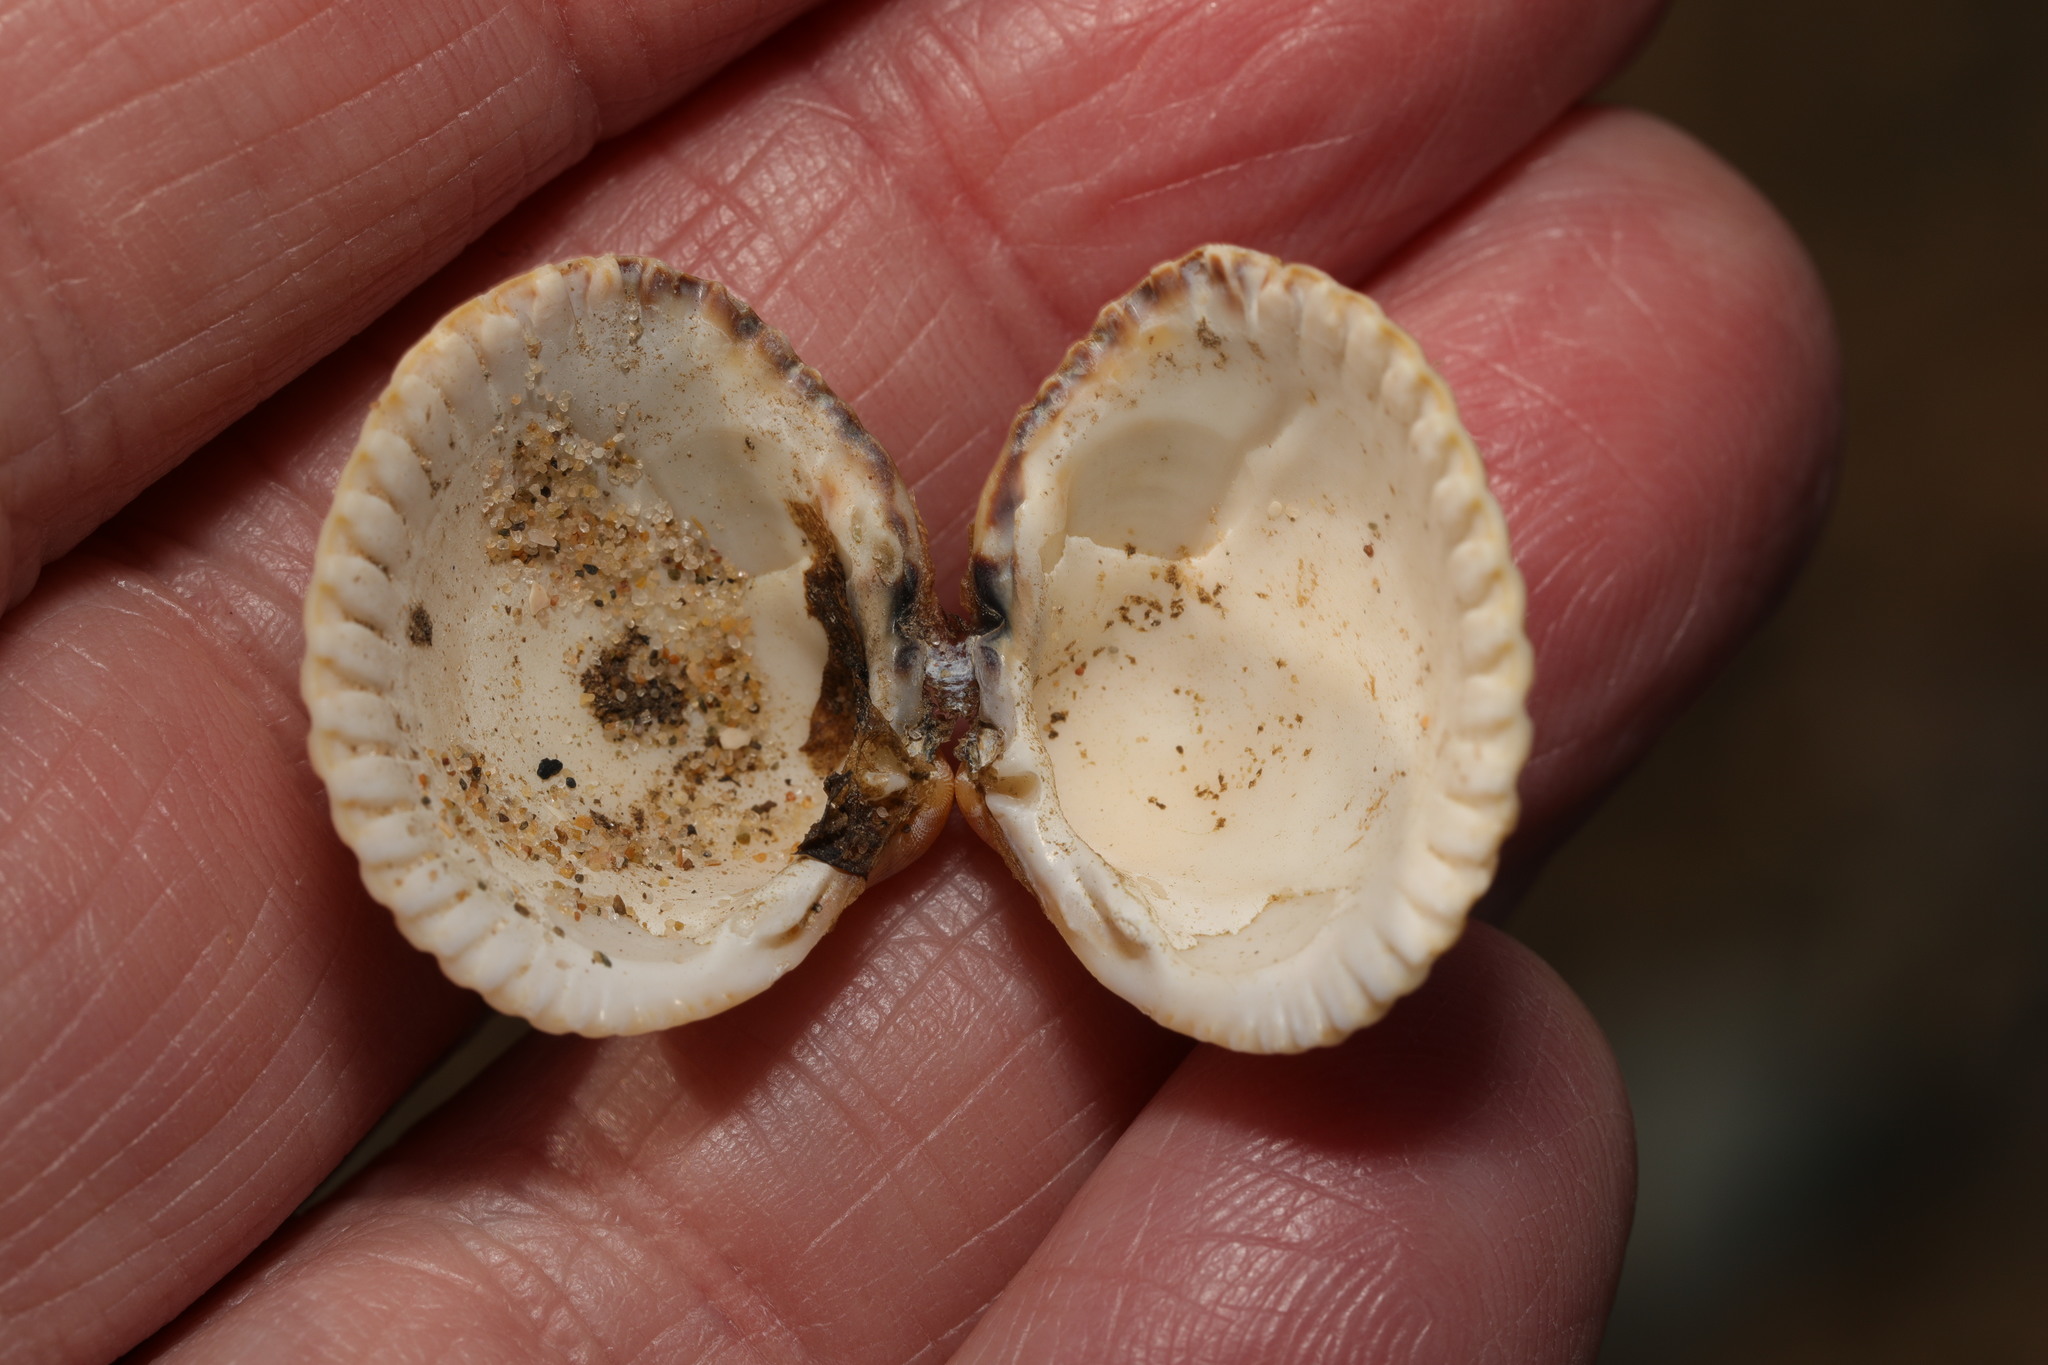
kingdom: Animalia
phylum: Mollusca
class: Bivalvia
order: Cardiida
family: Cardiidae
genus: Cerastoderma
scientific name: Cerastoderma edule
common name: Common cockle
